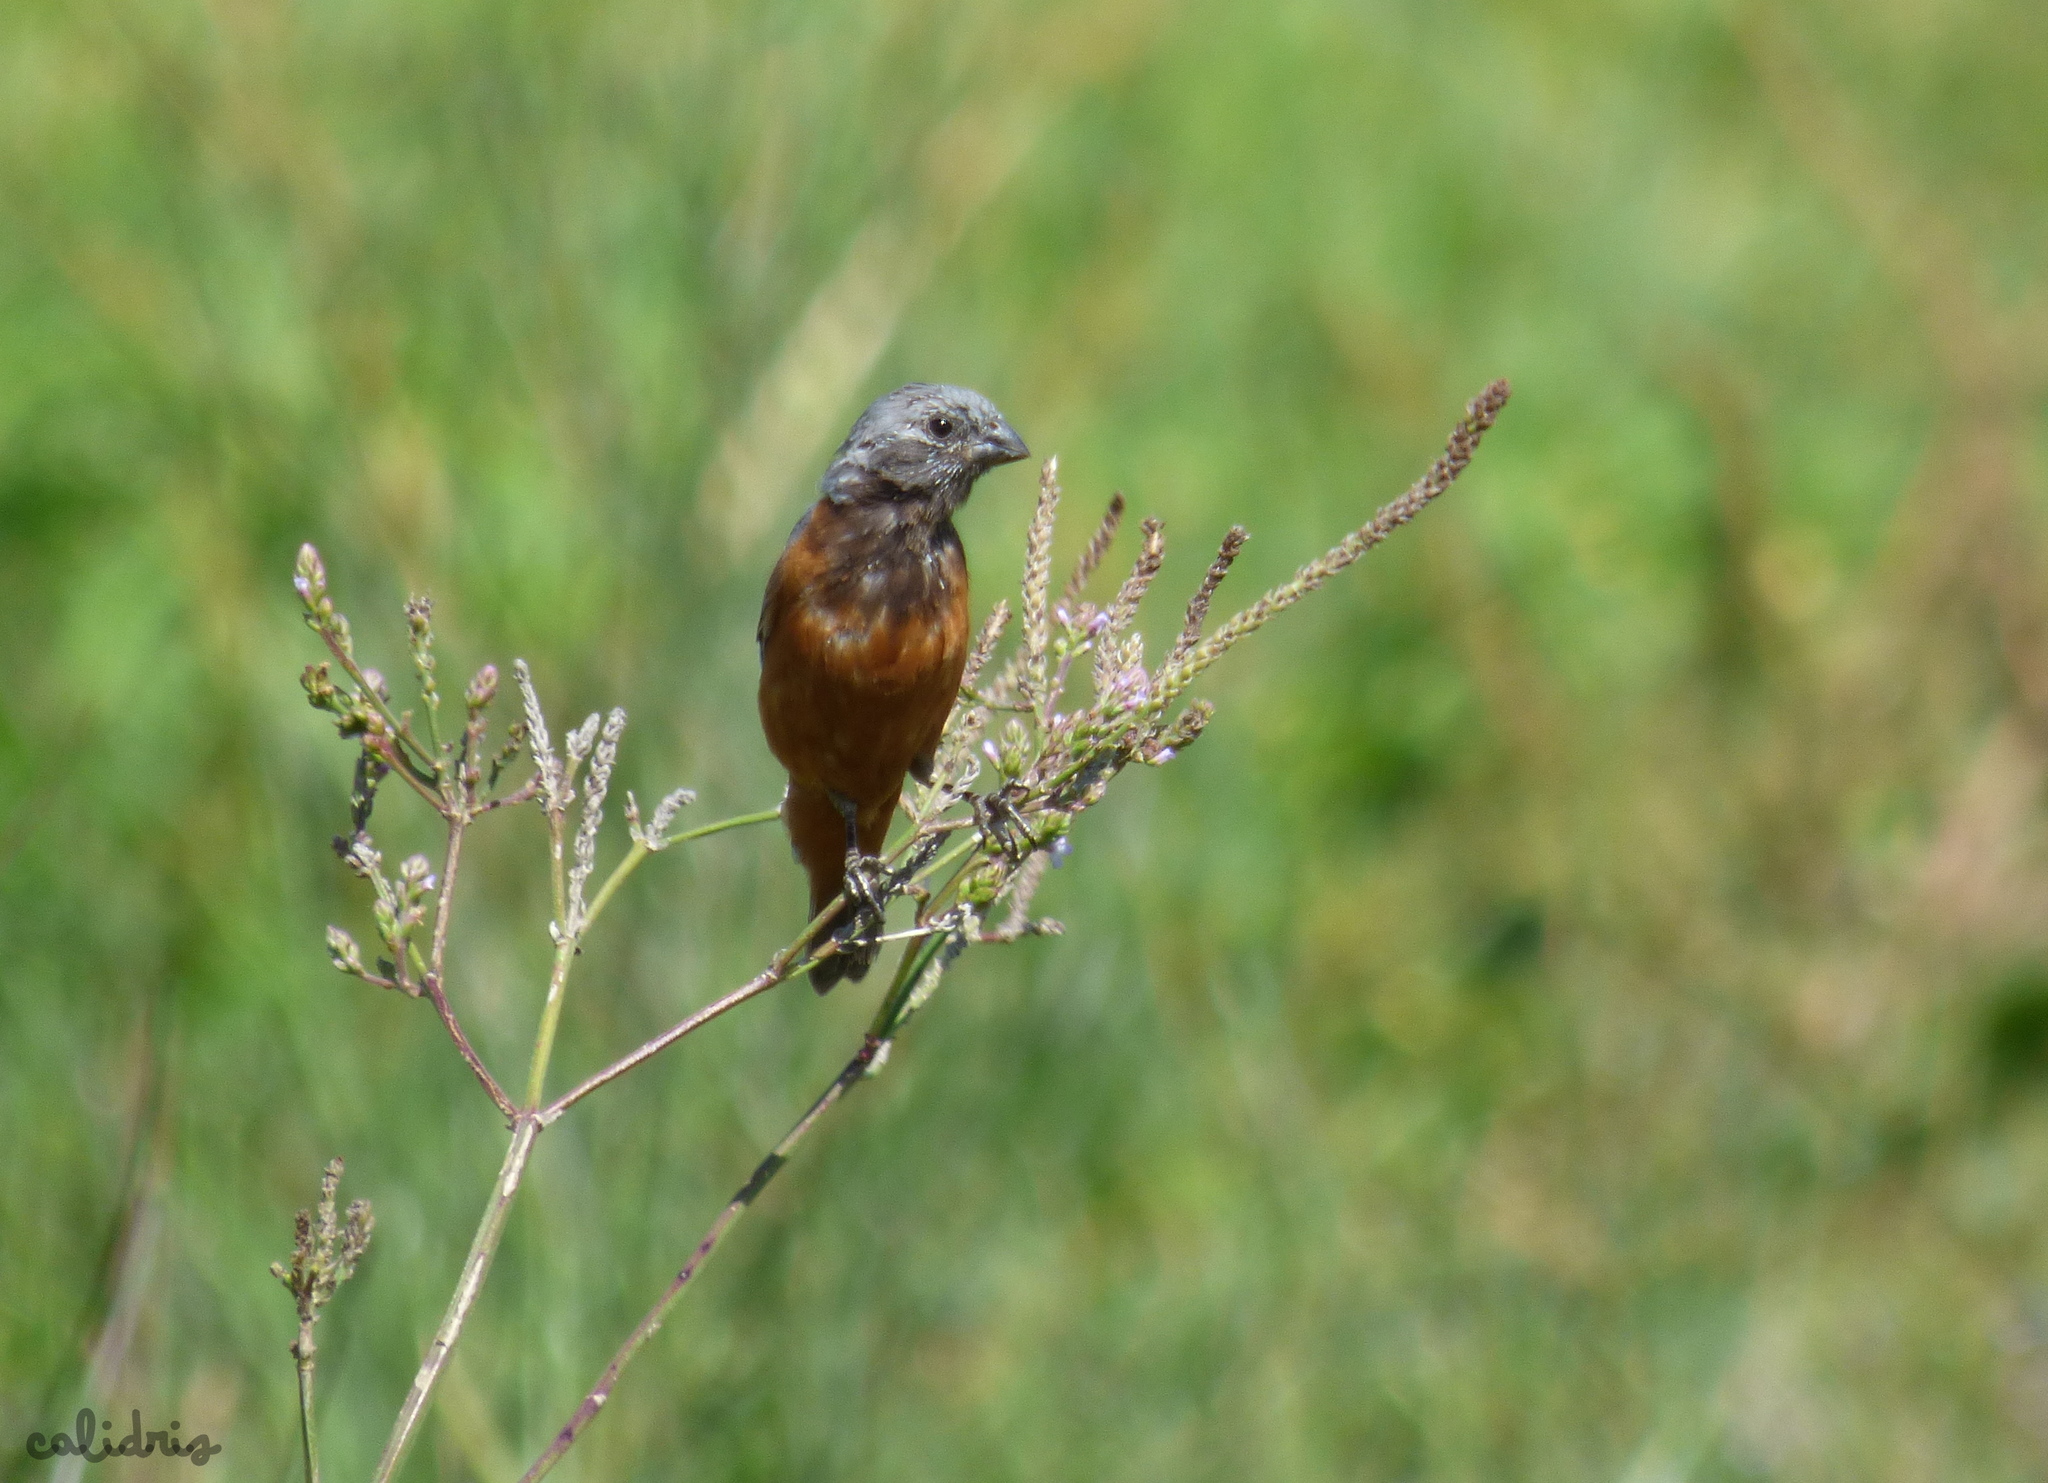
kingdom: Animalia
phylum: Chordata
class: Aves
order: Passeriformes
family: Thraupidae
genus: Sporophila
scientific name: Sporophila ruficollis
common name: Dark-throated seedeater
